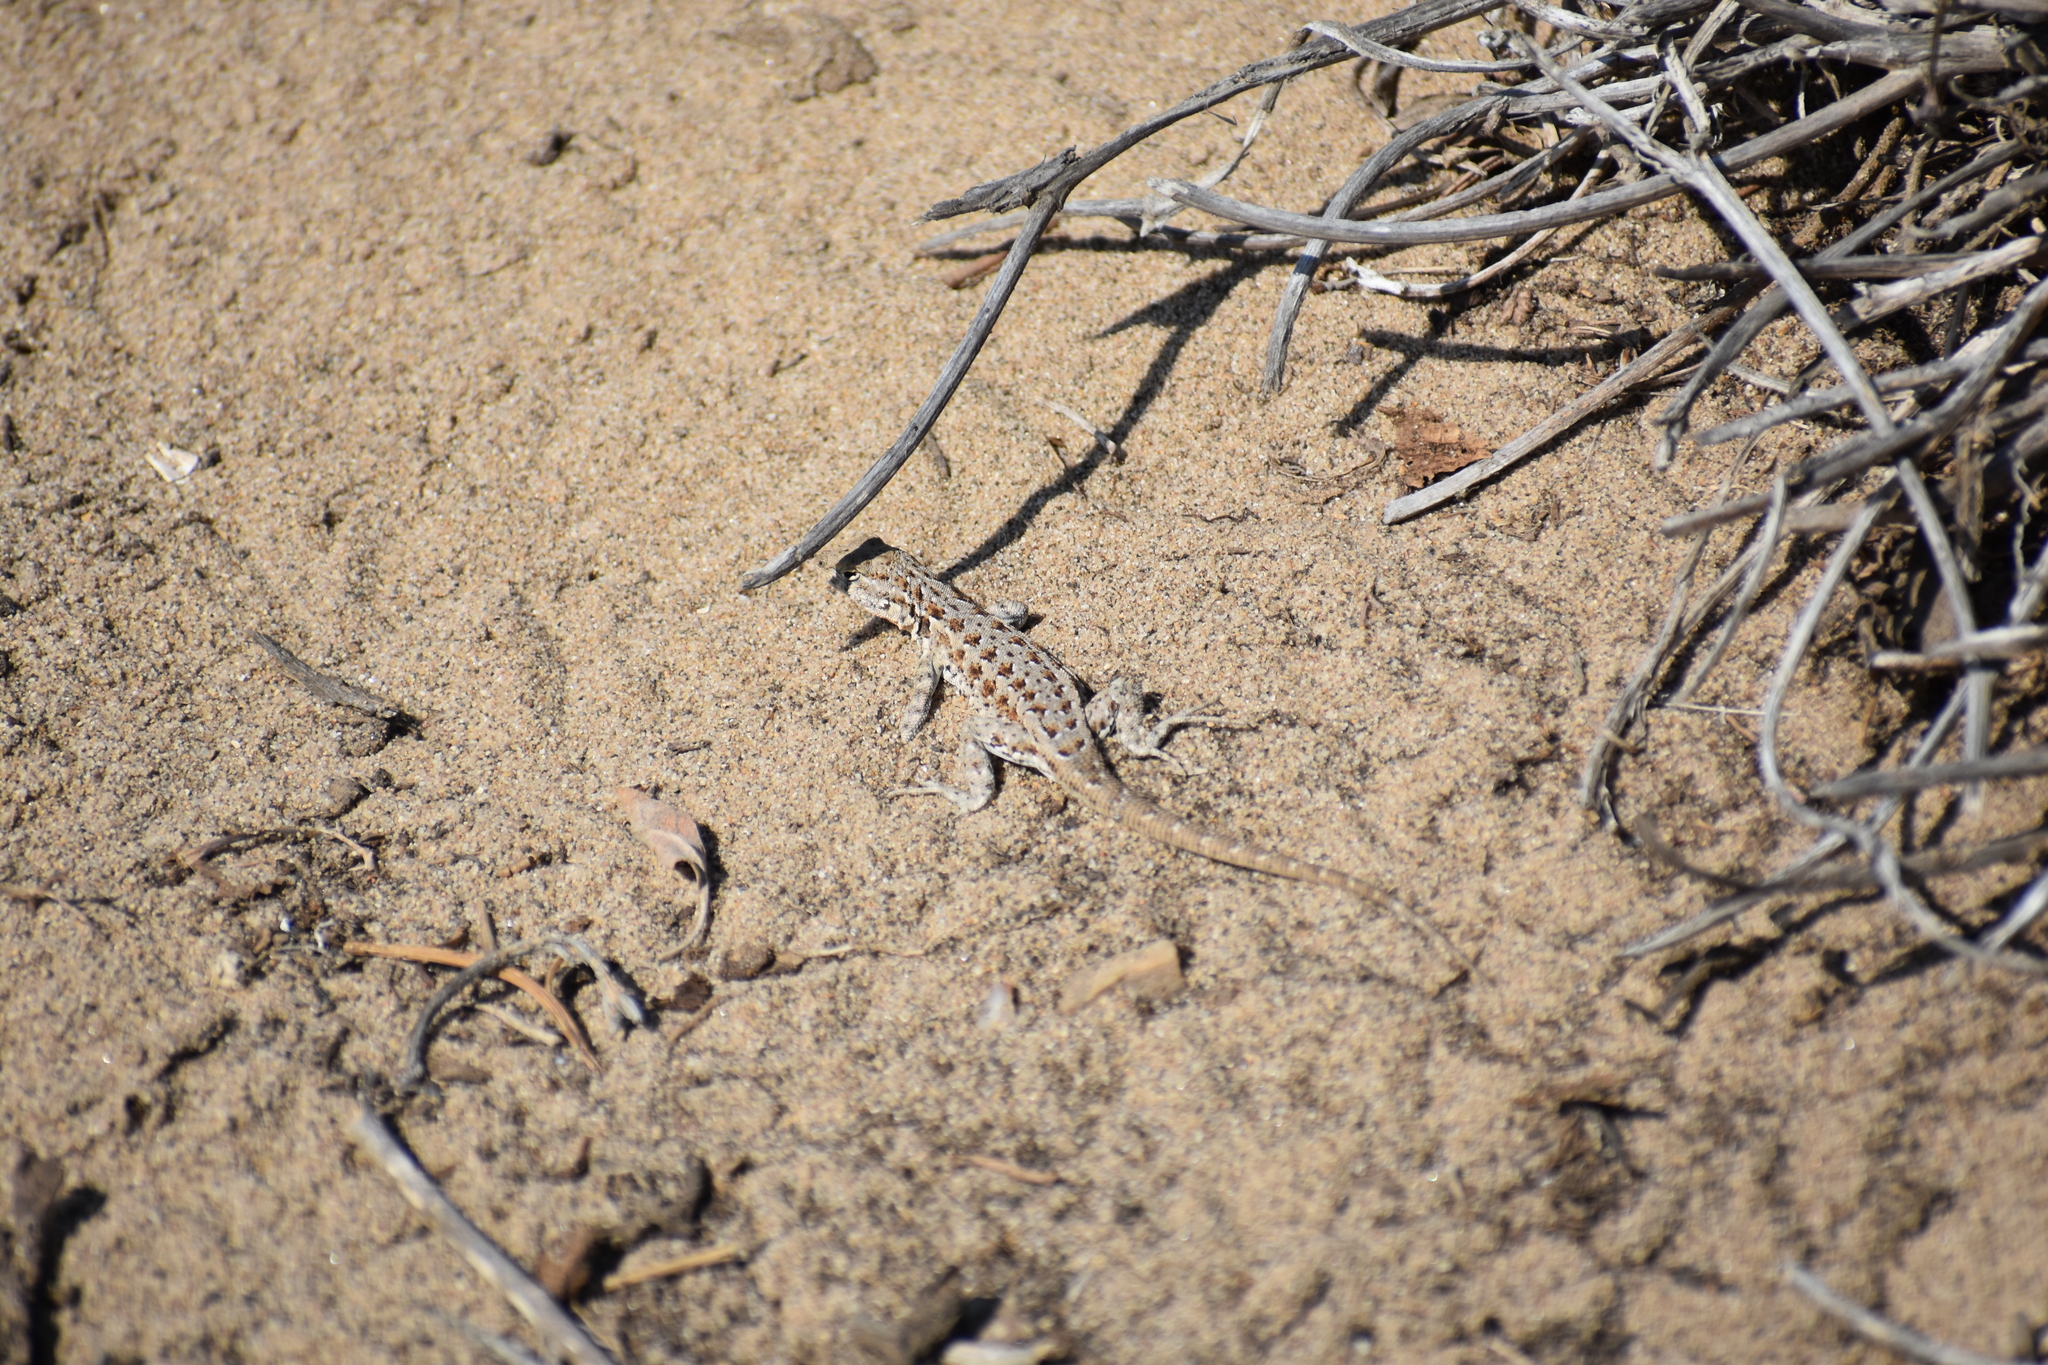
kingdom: Animalia
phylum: Chordata
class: Squamata
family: Phrynosomatidae
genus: Uta
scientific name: Uta stansburiana
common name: Side-blotched lizard
